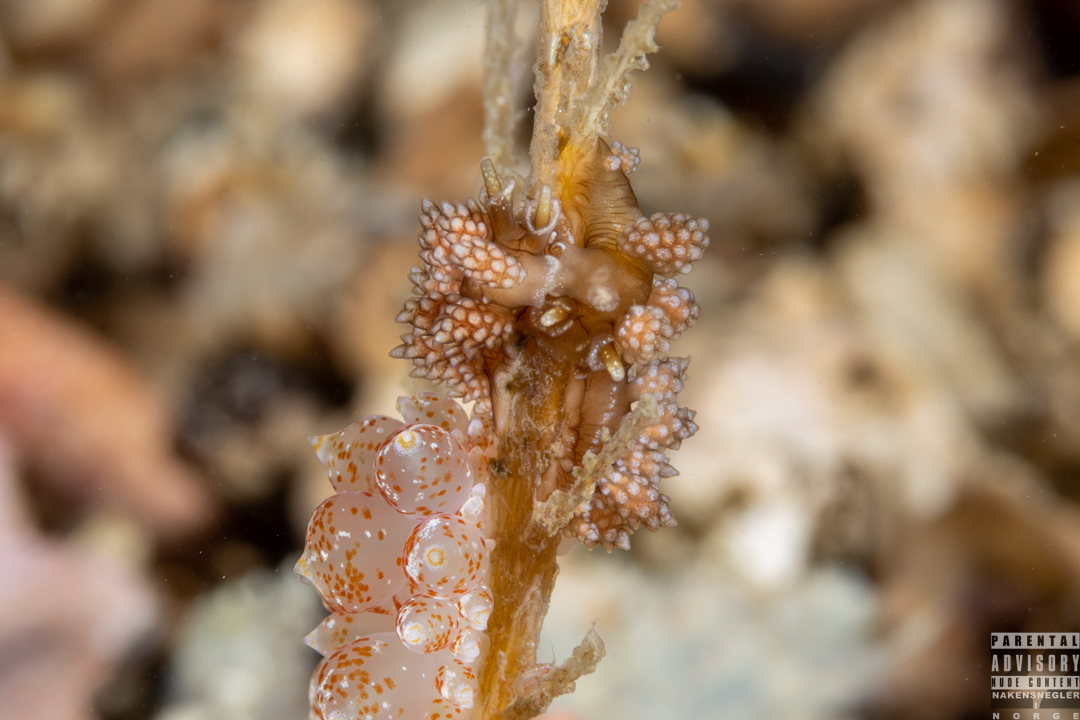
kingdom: Animalia
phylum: Mollusca
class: Gastropoda
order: Nudibranchia
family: Dotidae
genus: Doto
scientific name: Doto fragilis
